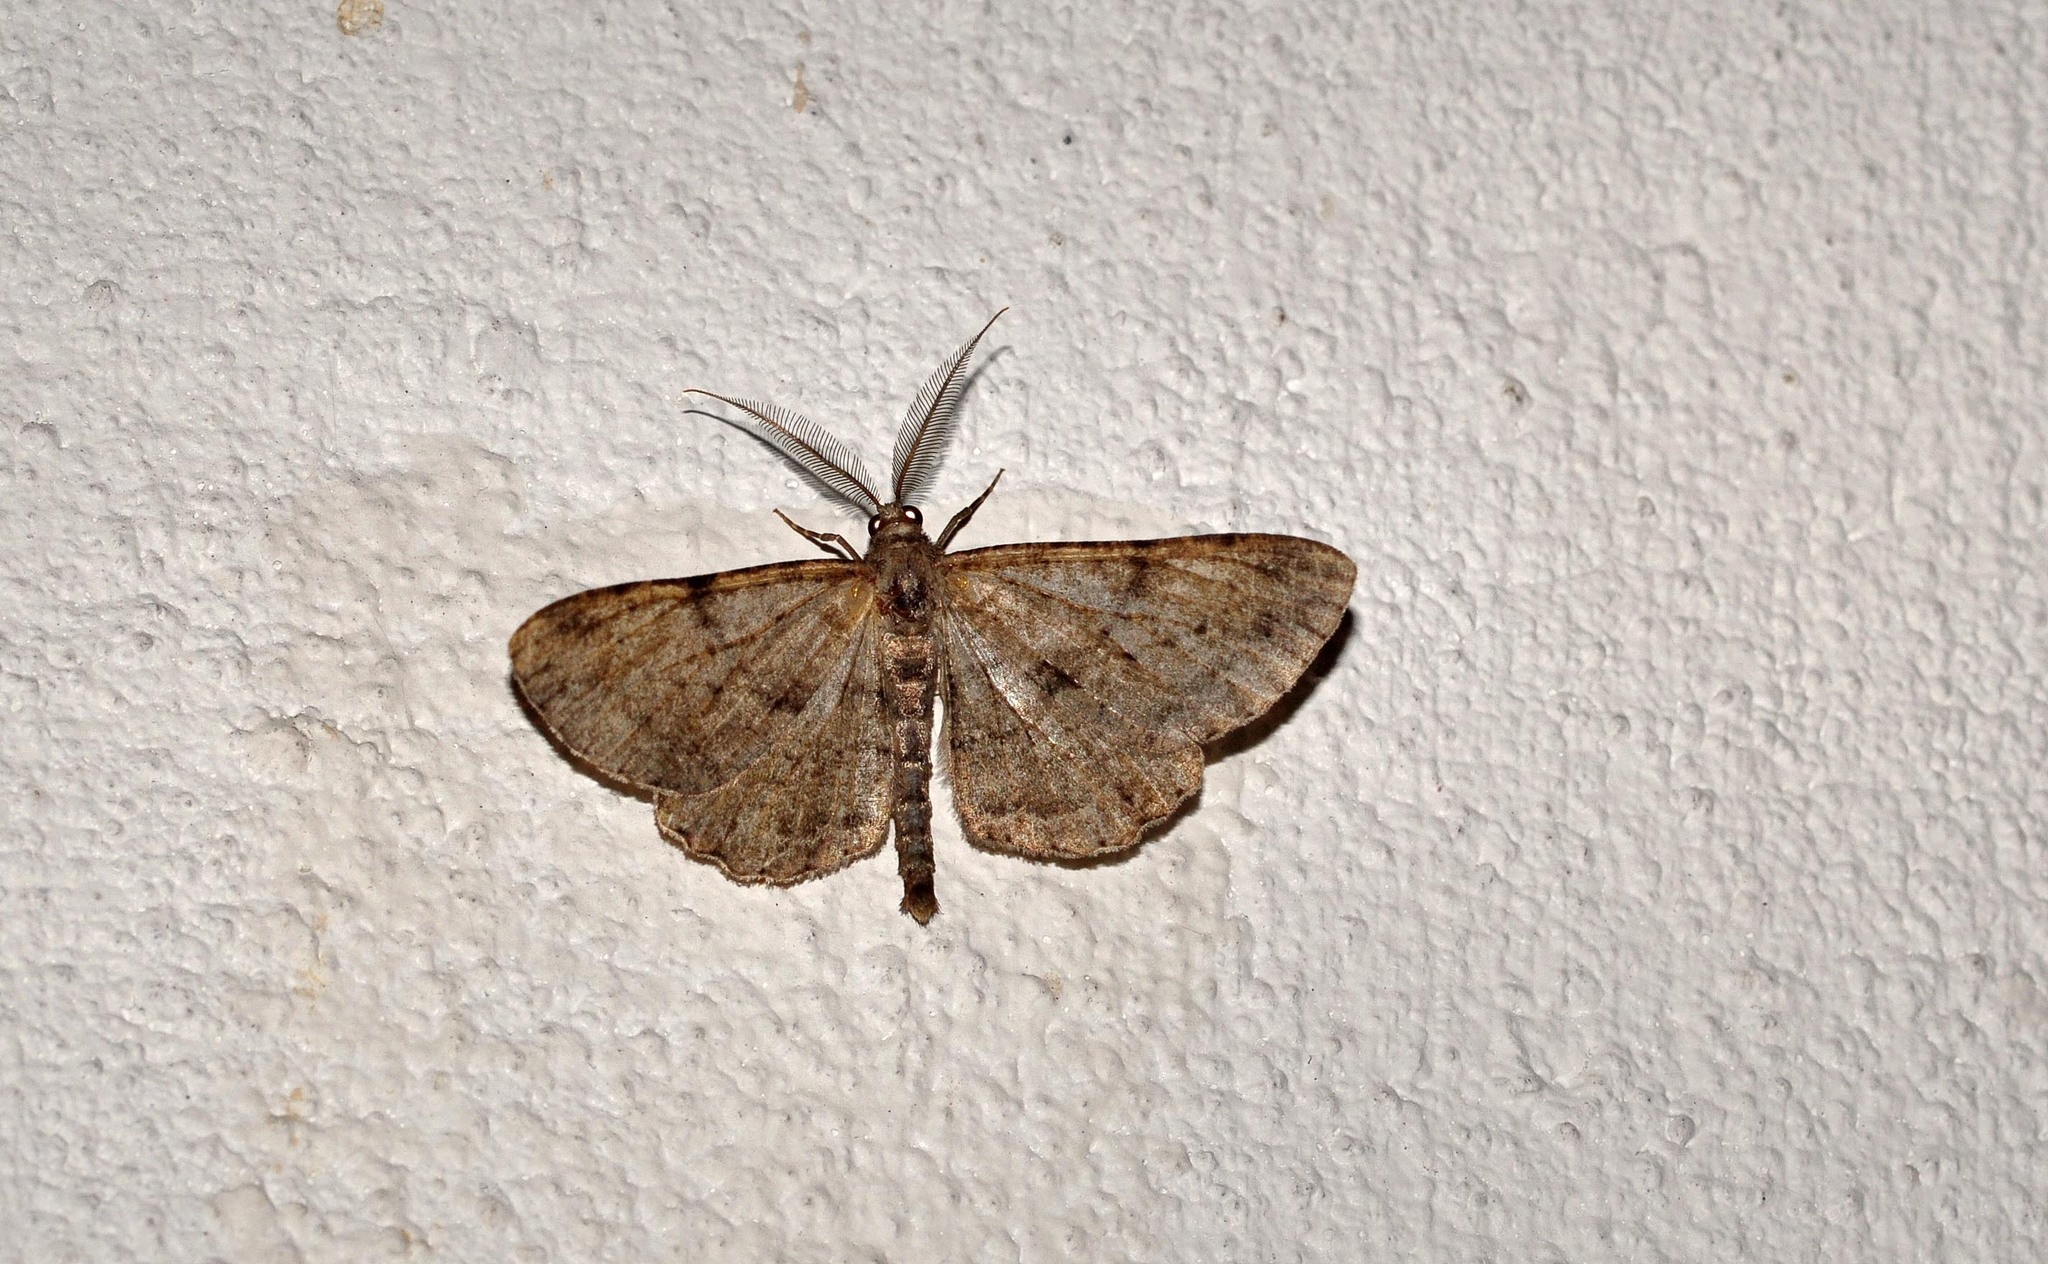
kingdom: Animalia
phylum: Arthropoda
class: Insecta
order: Lepidoptera
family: Geometridae
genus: Peribatodes
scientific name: Peribatodes rhomboidaria
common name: Willow beauty
